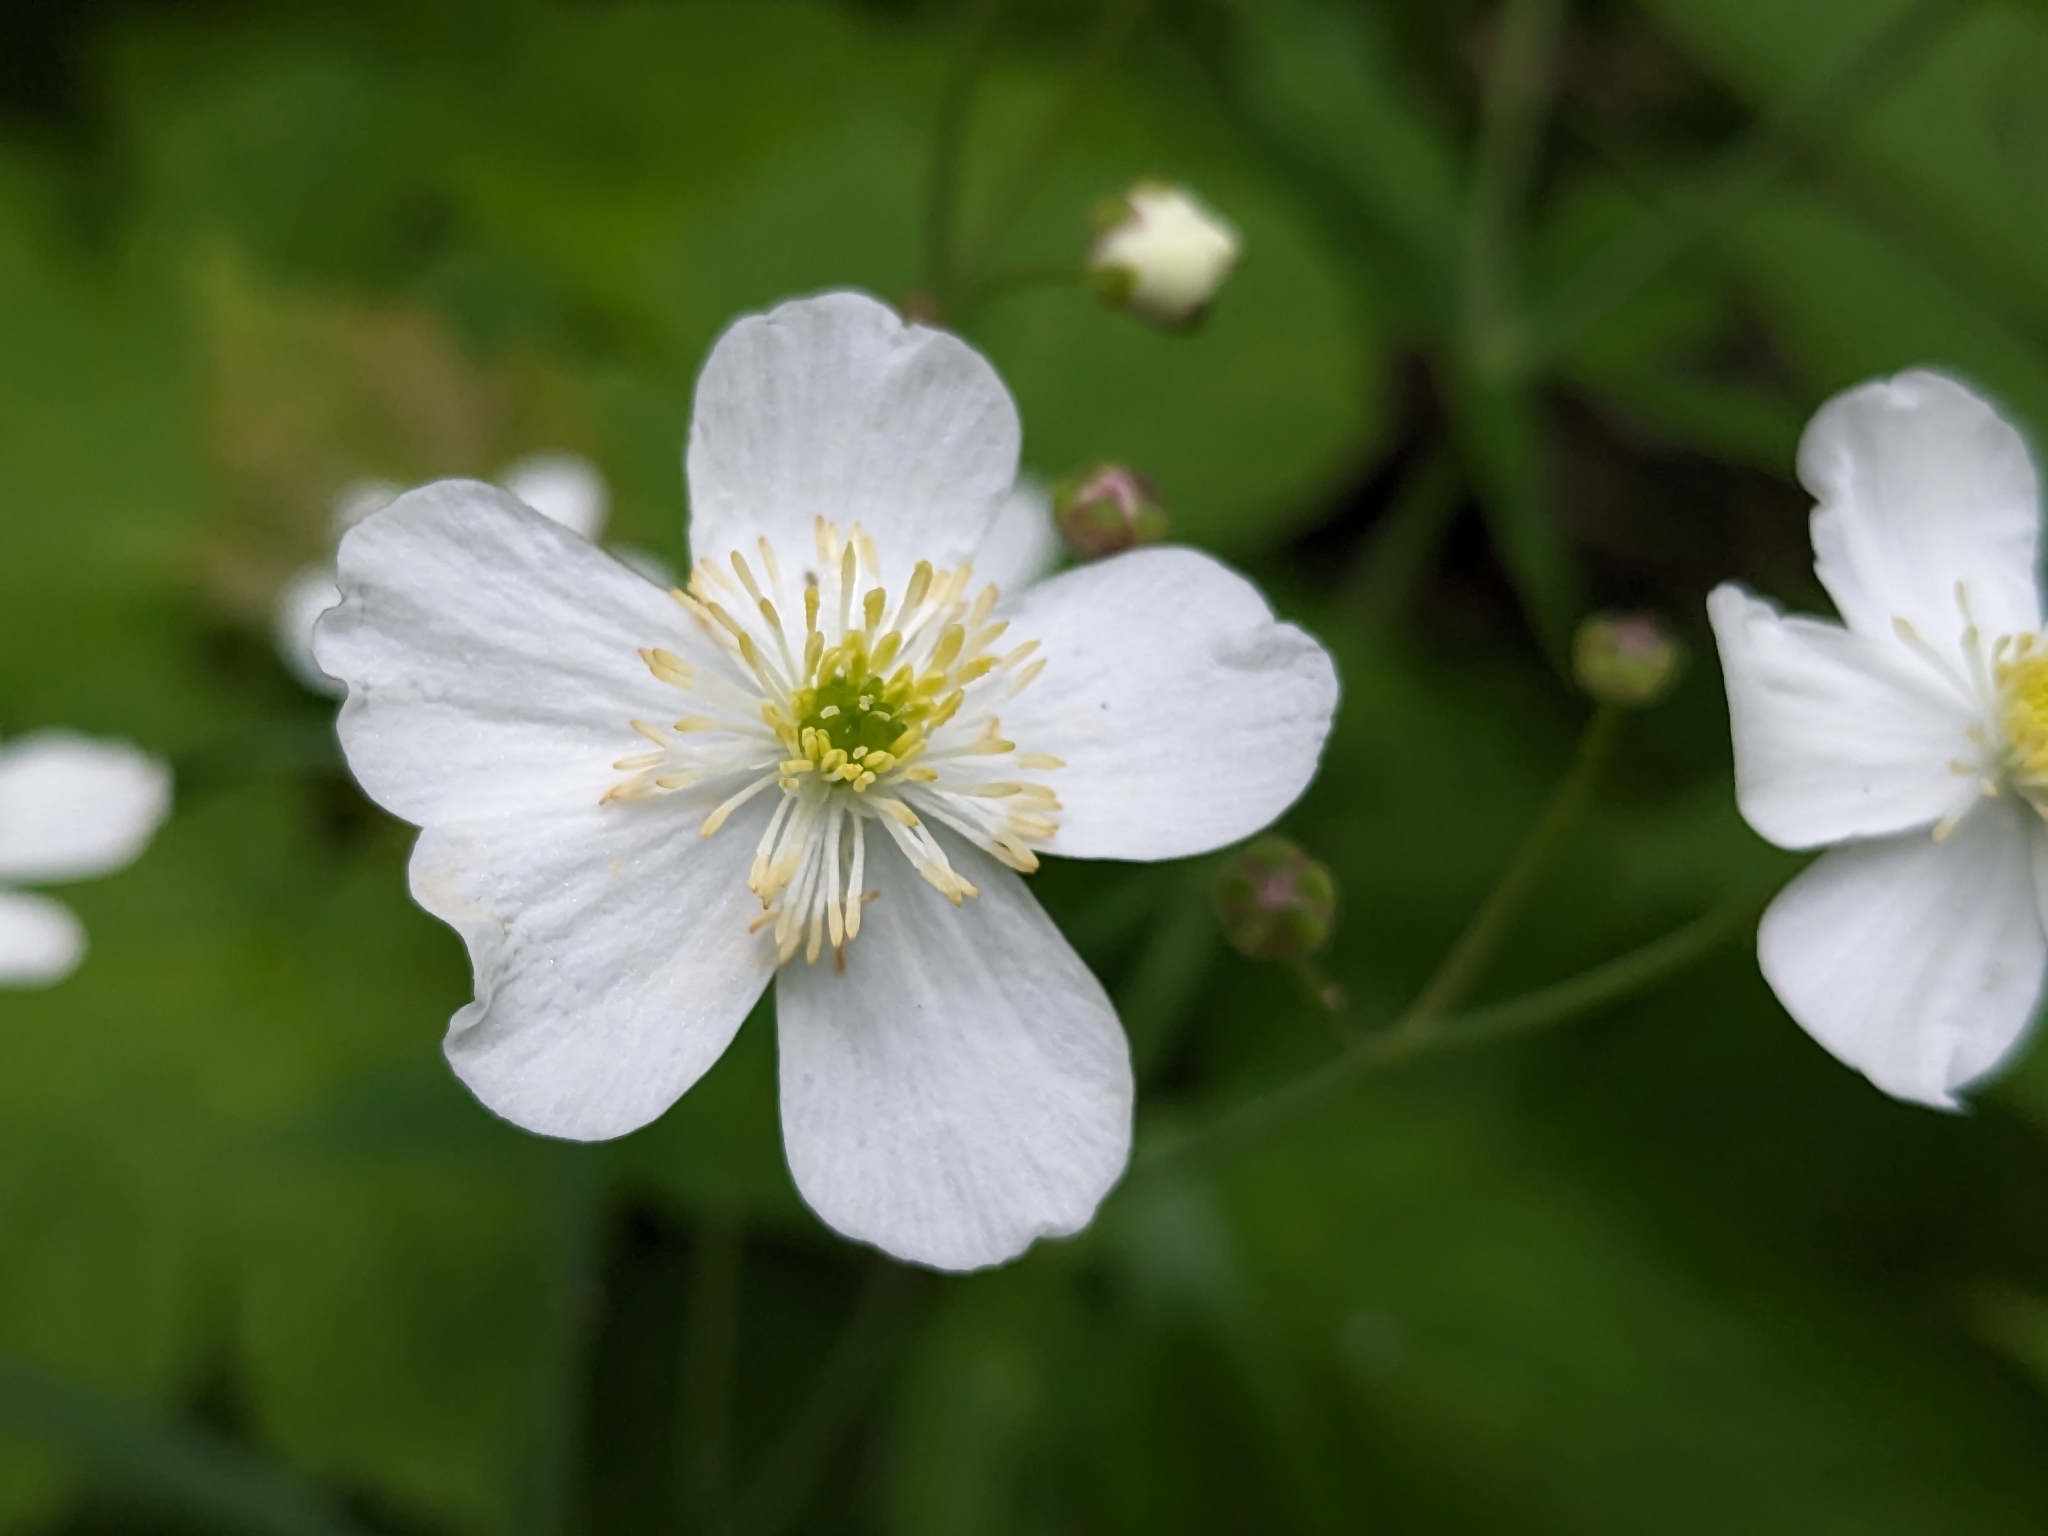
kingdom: Plantae
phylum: Tracheophyta
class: Magnoliopsida
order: Ranunculales
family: Ranunculaceae
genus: Ranunculus
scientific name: Ranunculus platanifolius
